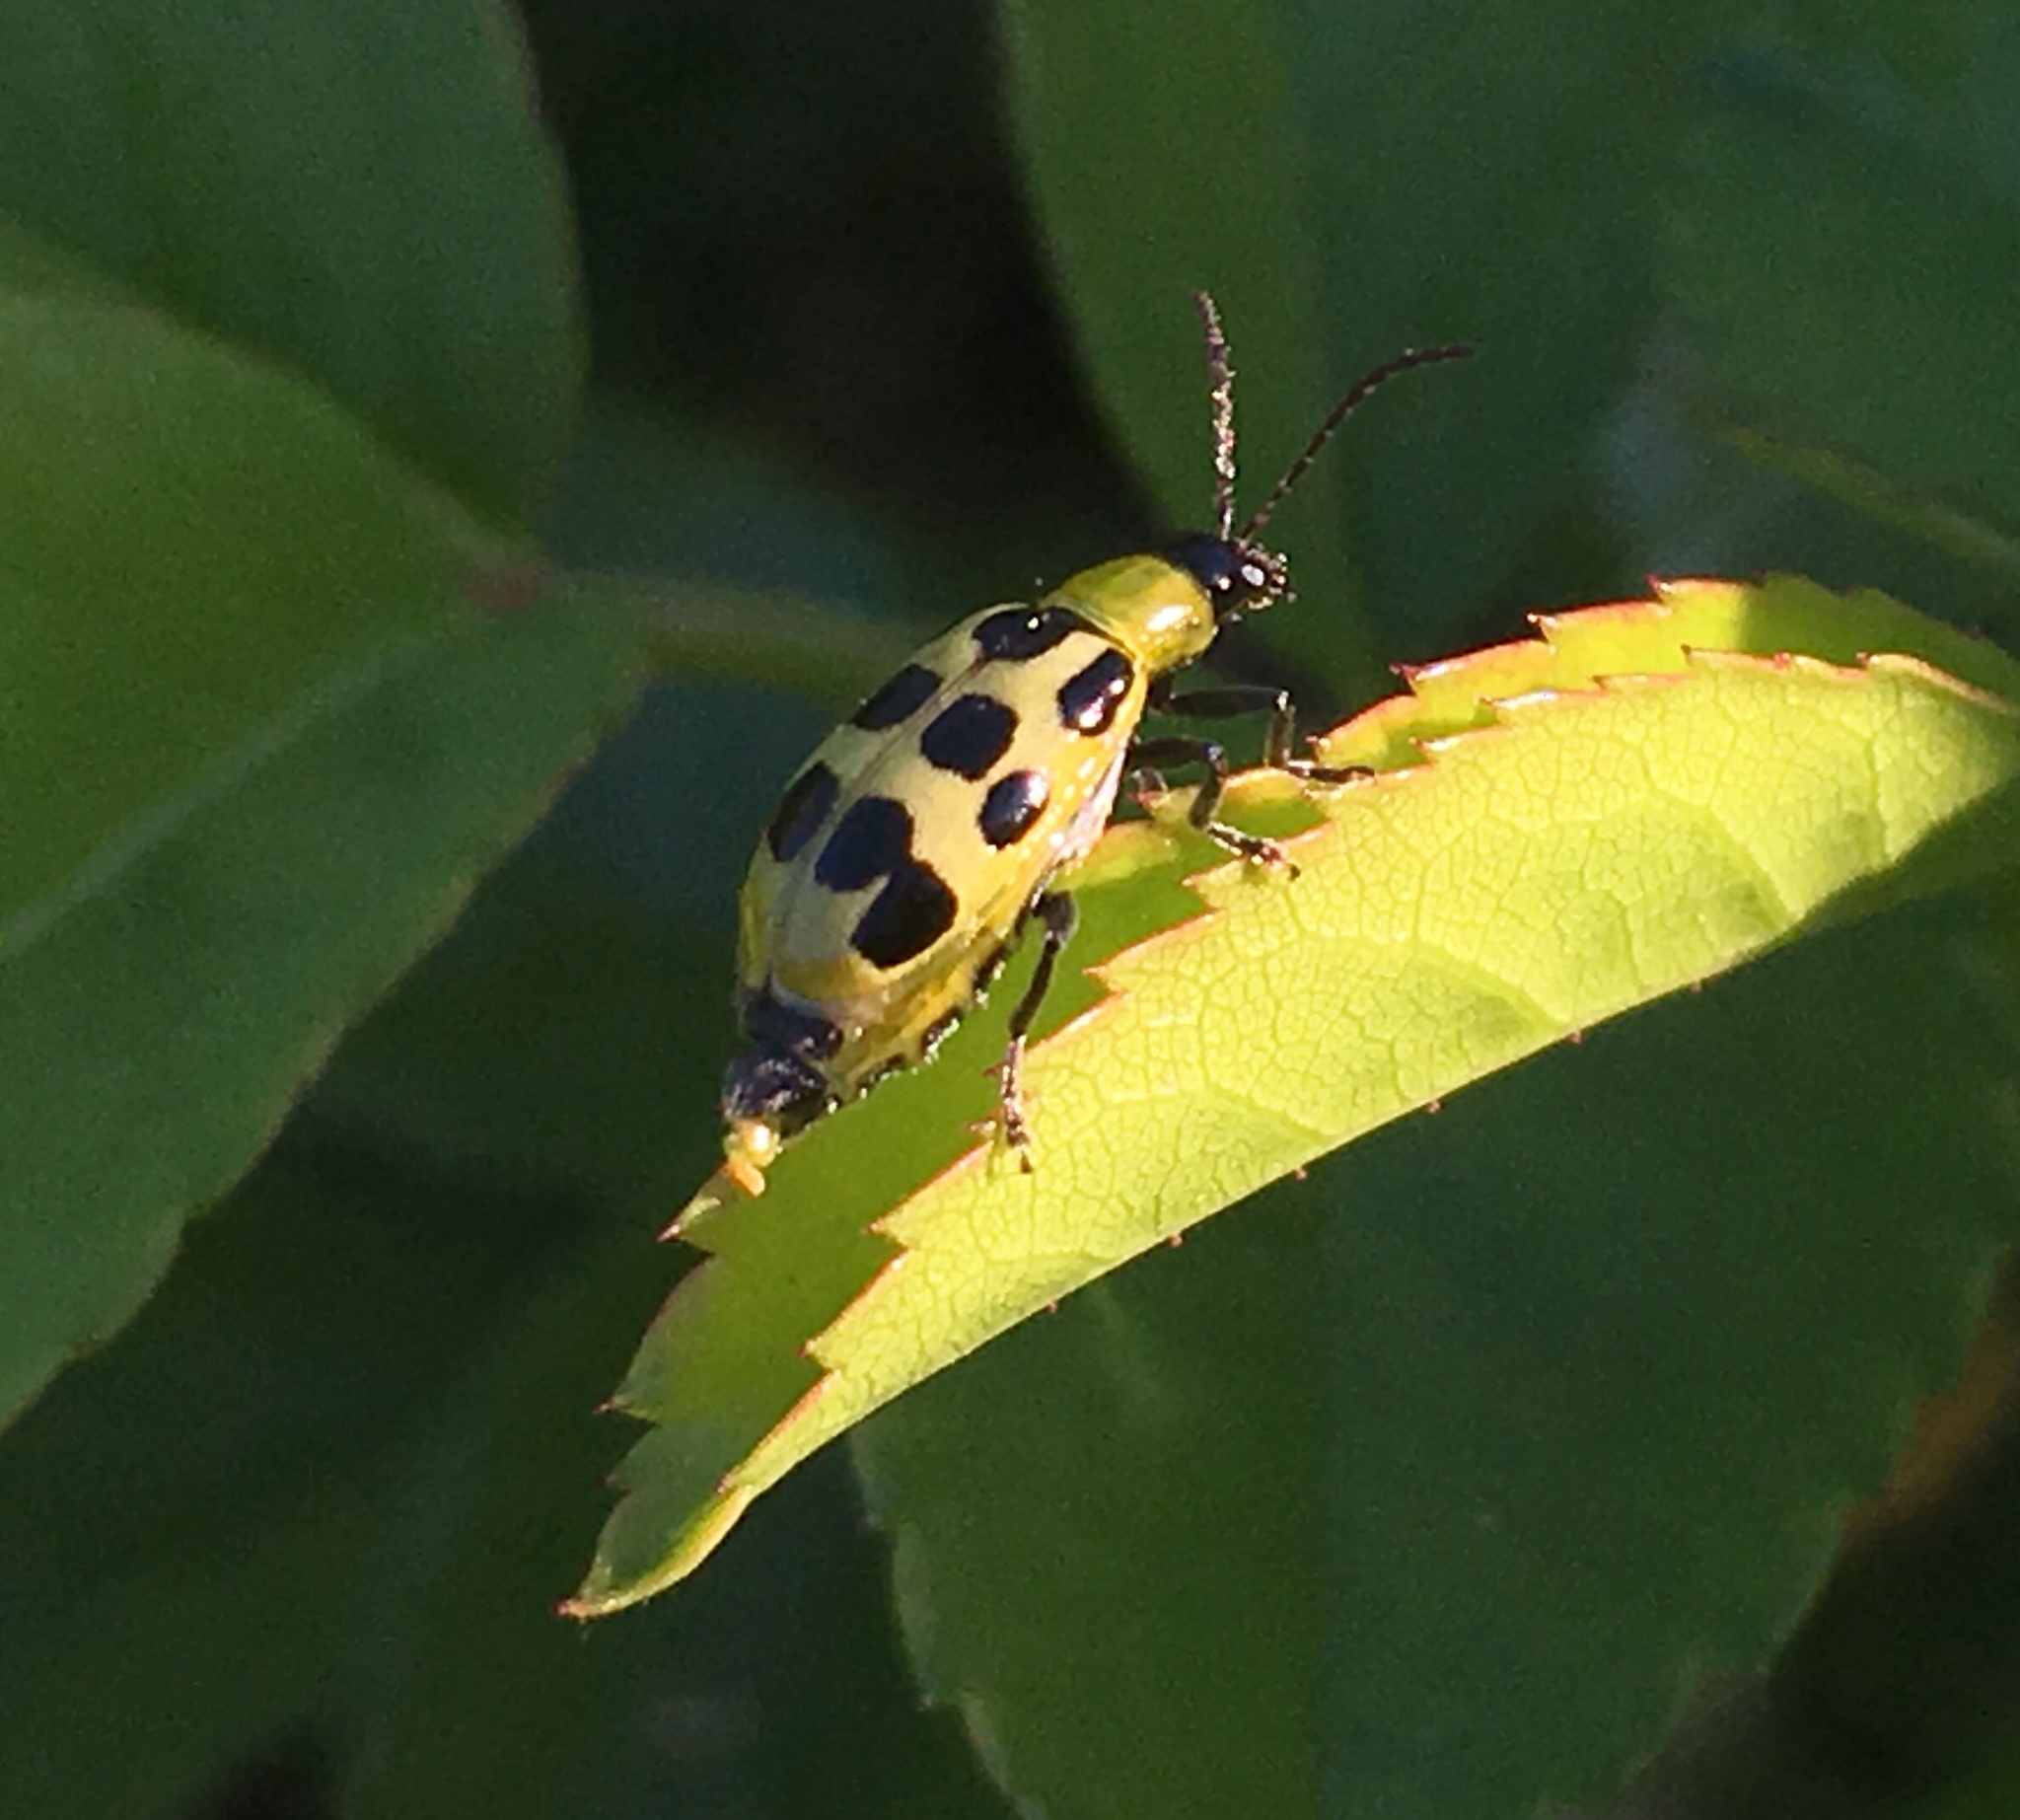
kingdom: Animalia
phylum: Arthropoda
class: Insecta
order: Coleoptera
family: Chrysomelidae
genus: Diabrotica
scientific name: Diabrotica undecimpunctata
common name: Spotted cucumber beetle
